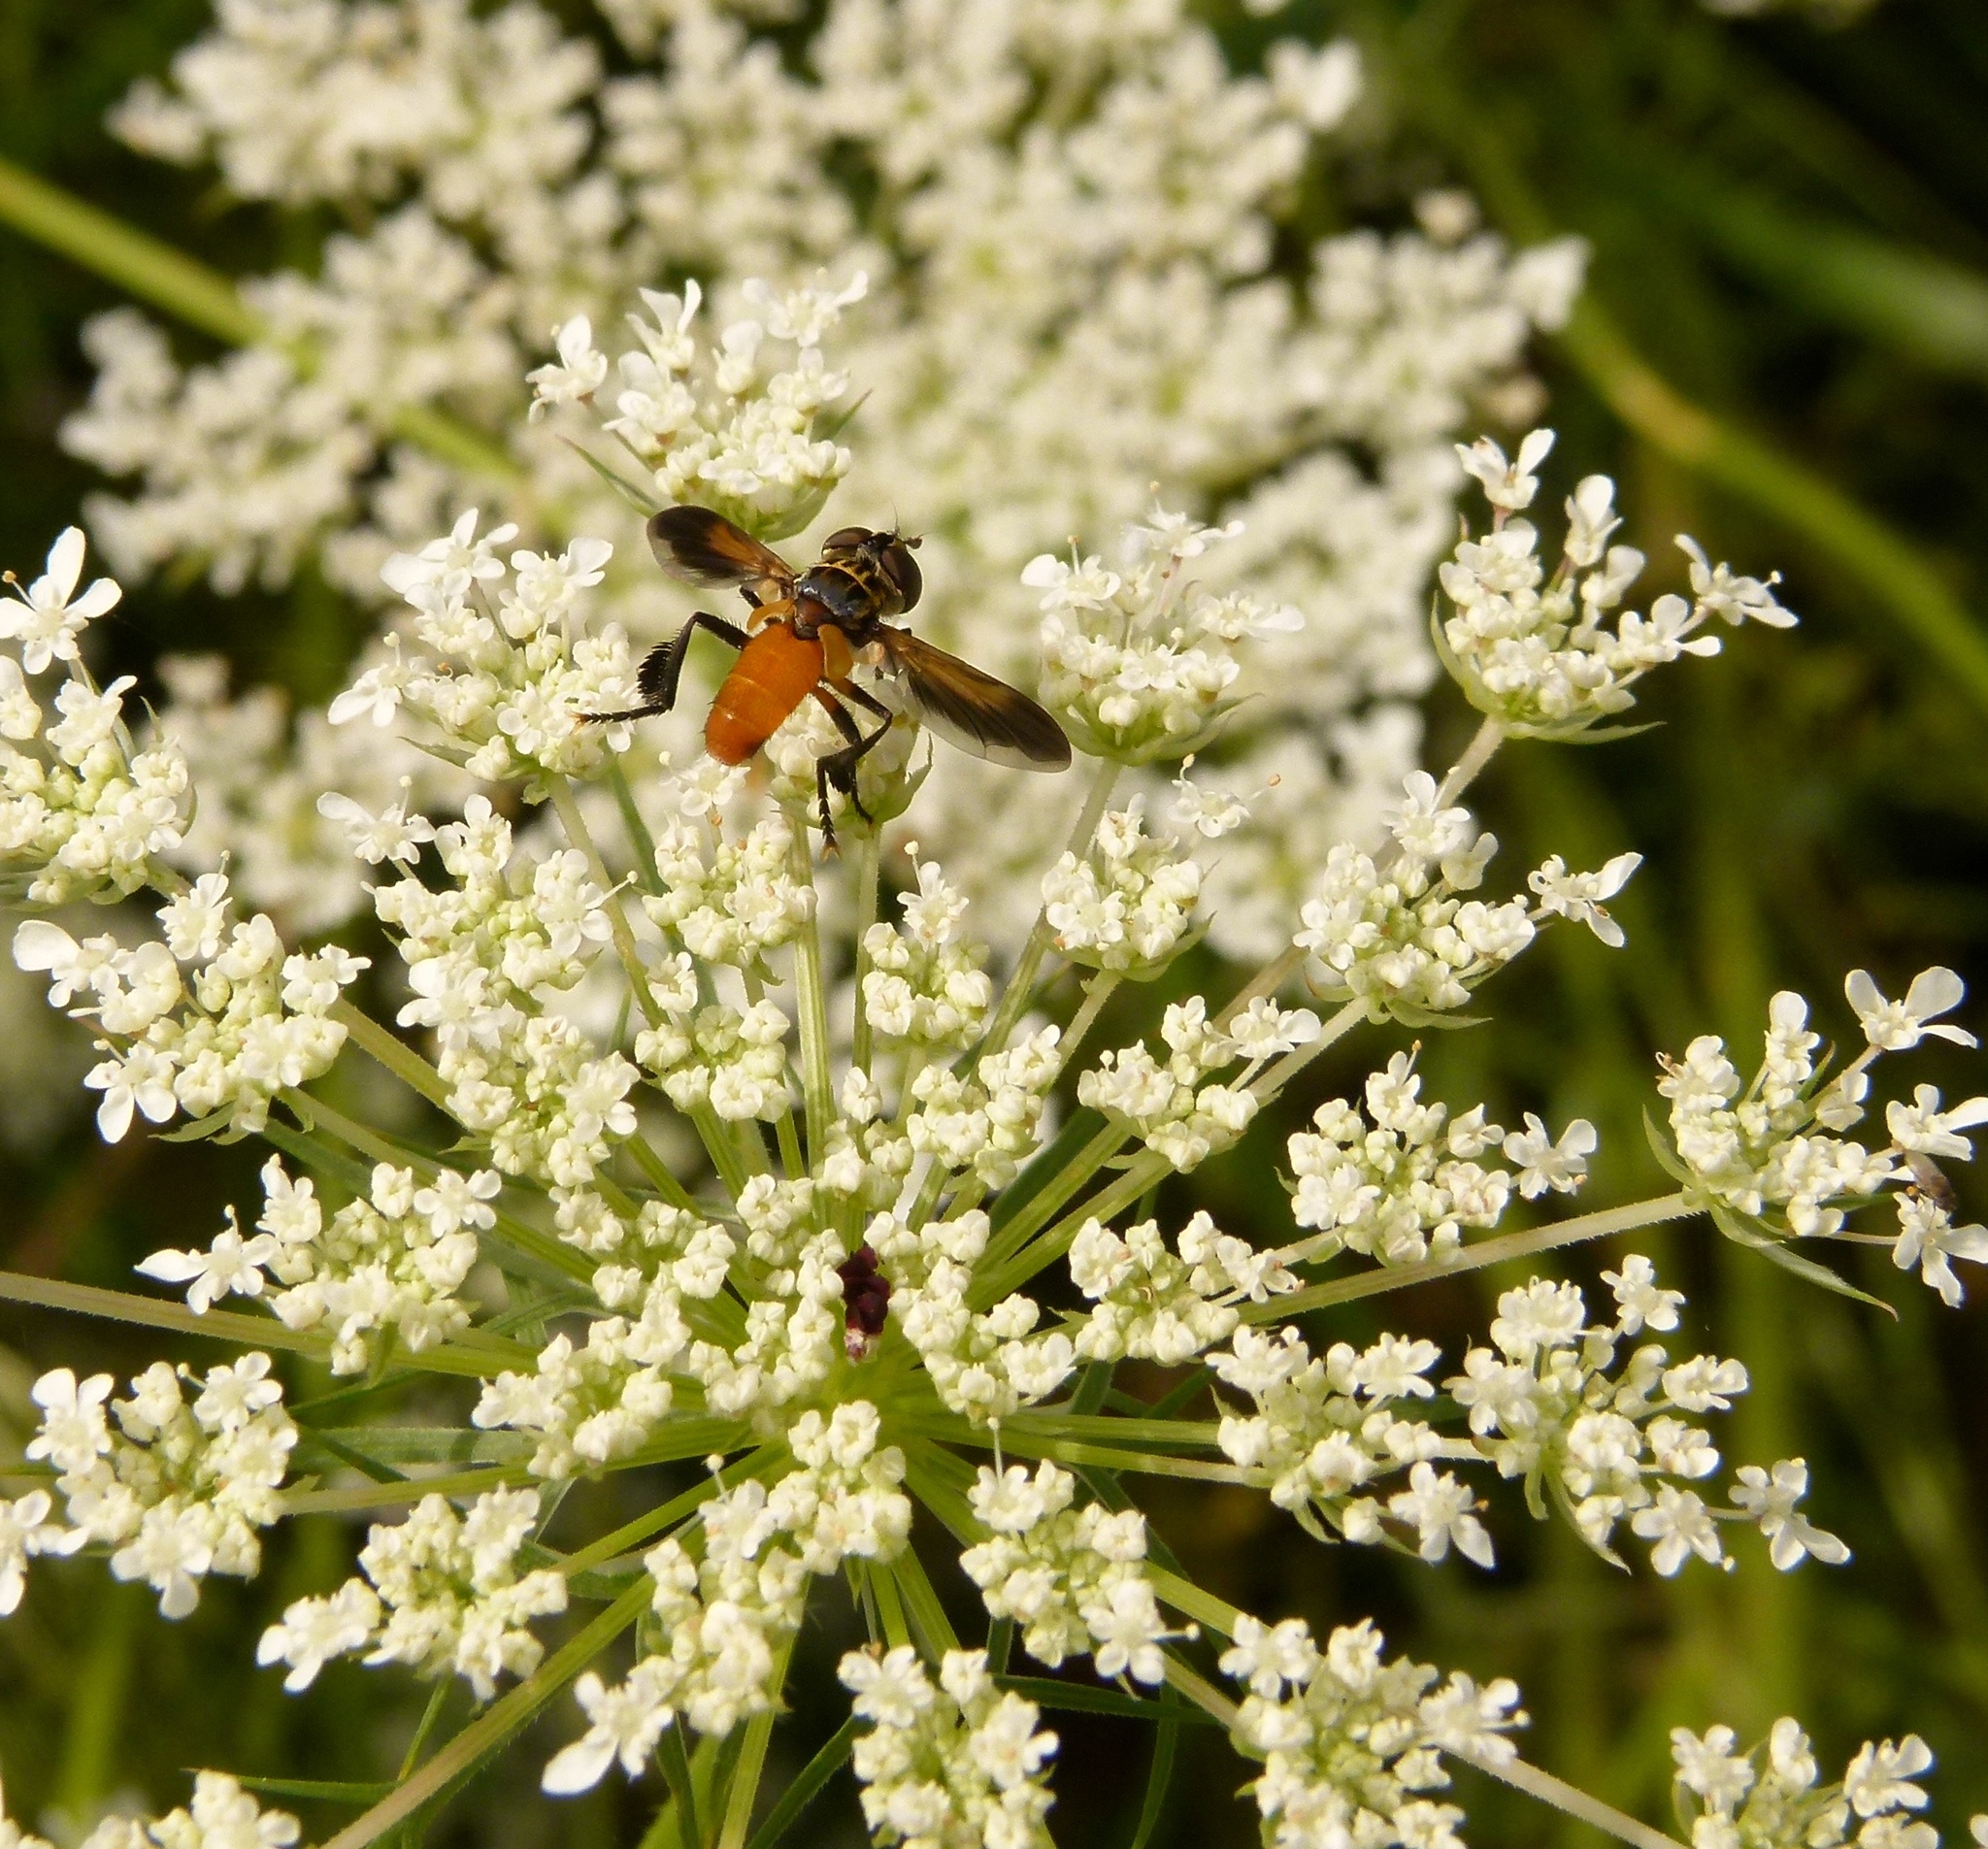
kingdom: Animalia
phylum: Arthropoda
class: Insecta
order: Diptera
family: Tachinidae
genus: Trichopoda
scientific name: Trichopoda pennipes
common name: Tachinid fly
